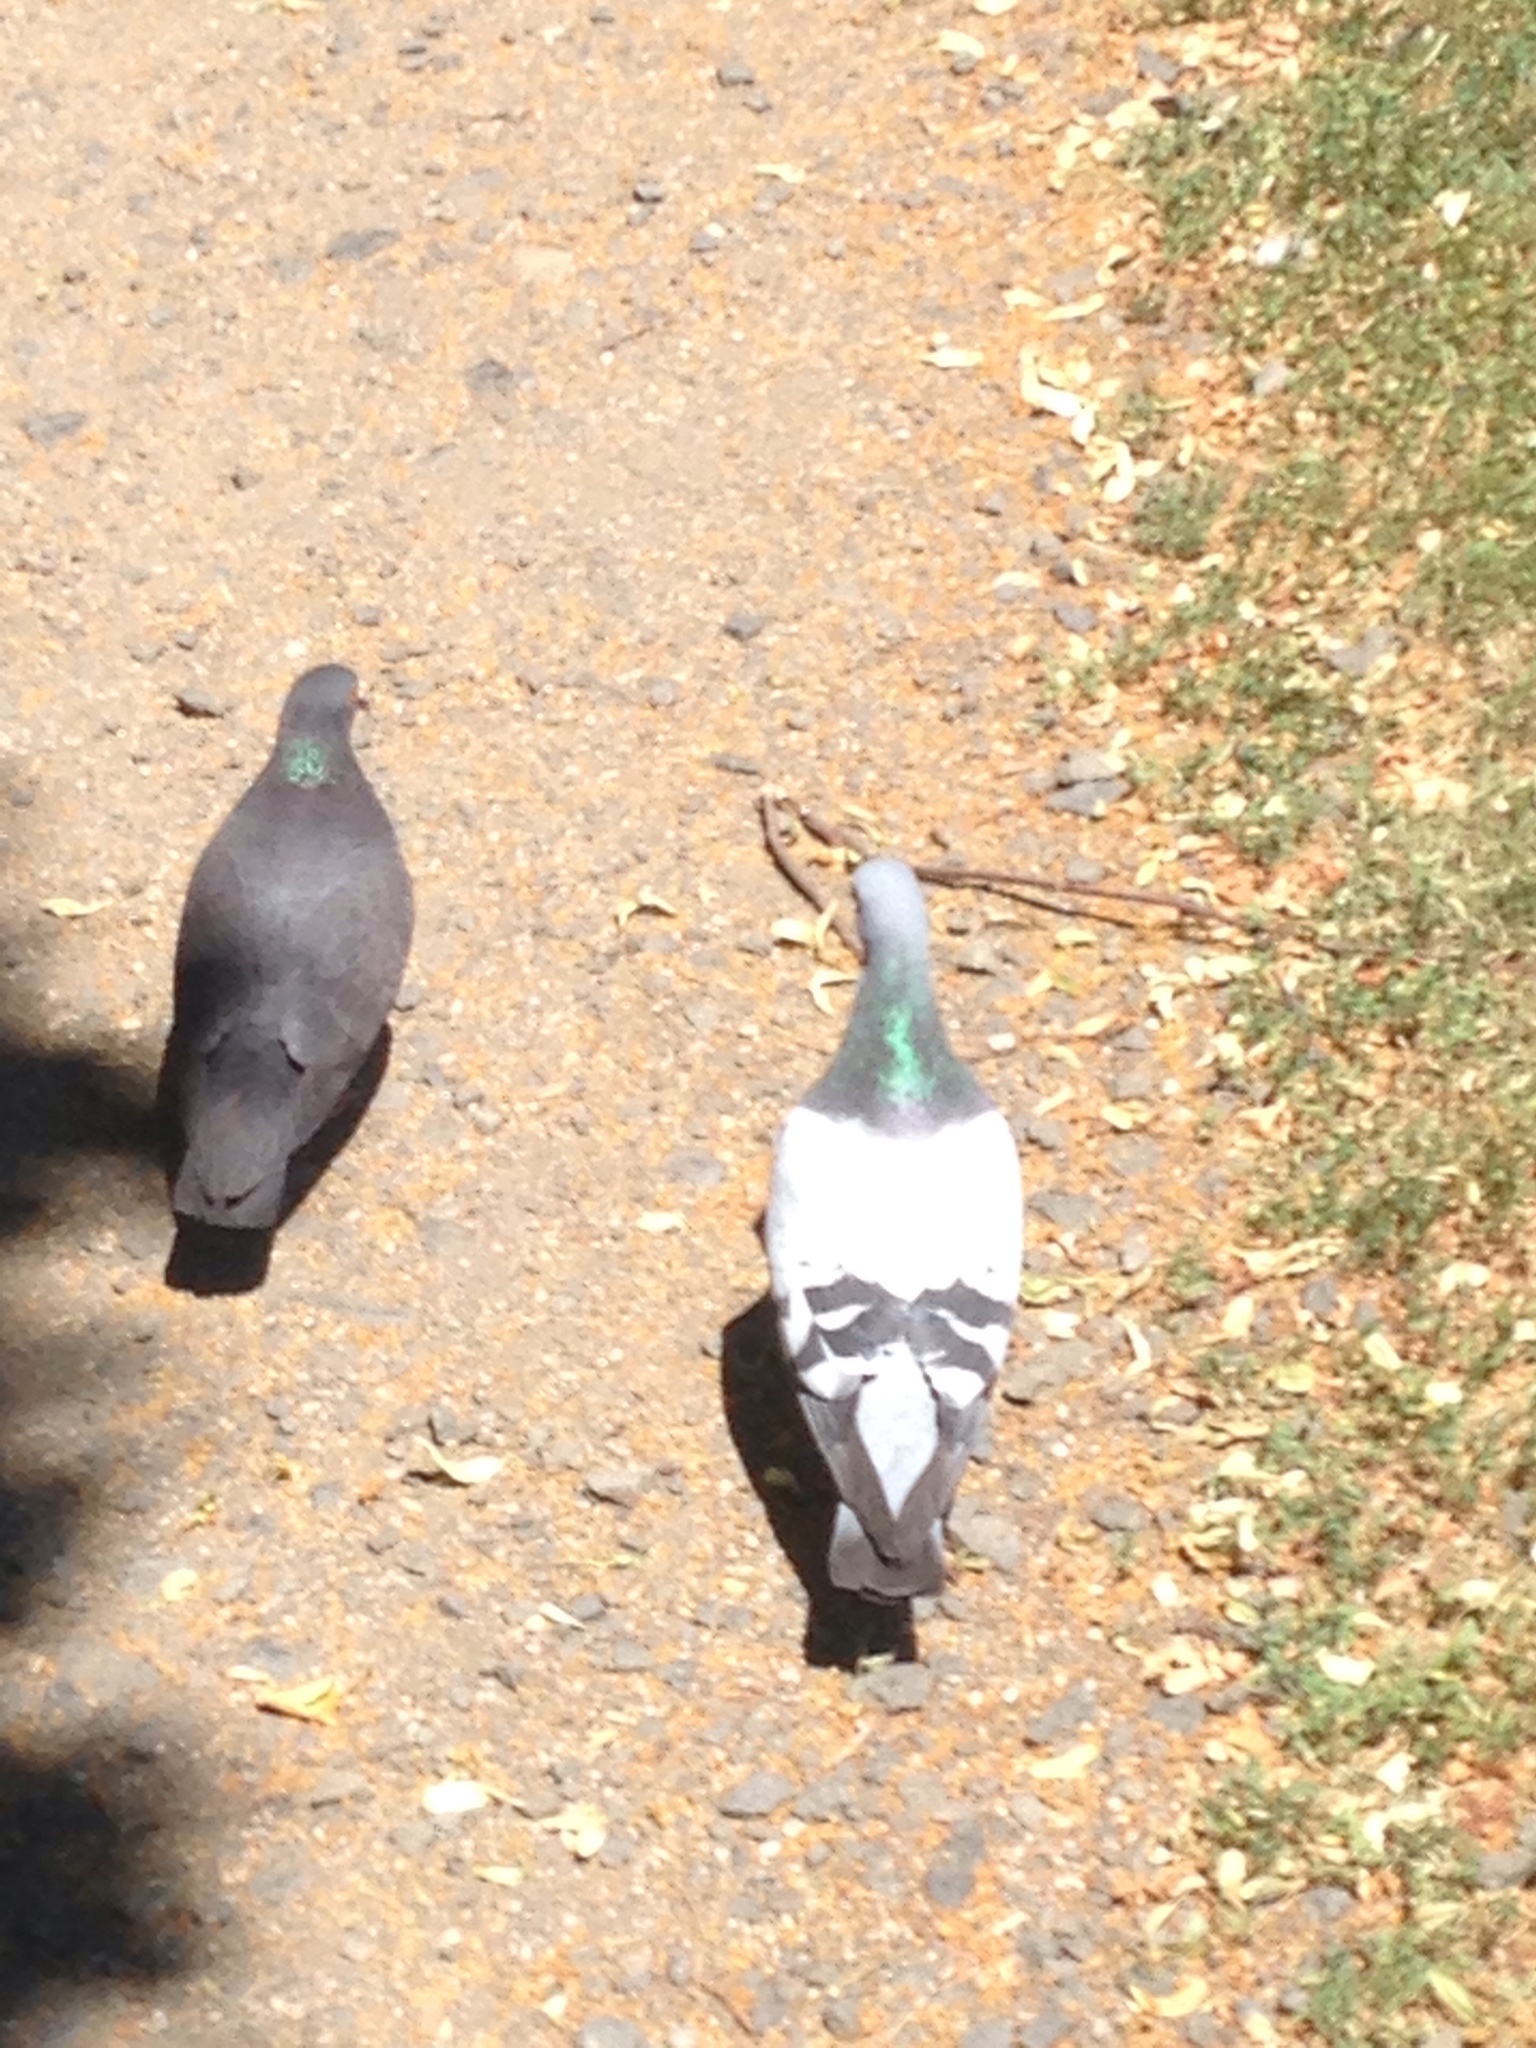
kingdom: Animalia
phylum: Chordata
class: Aves
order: Columbiformes
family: Columbidae
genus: Columba
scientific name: Columba livia
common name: Rock pigeon
